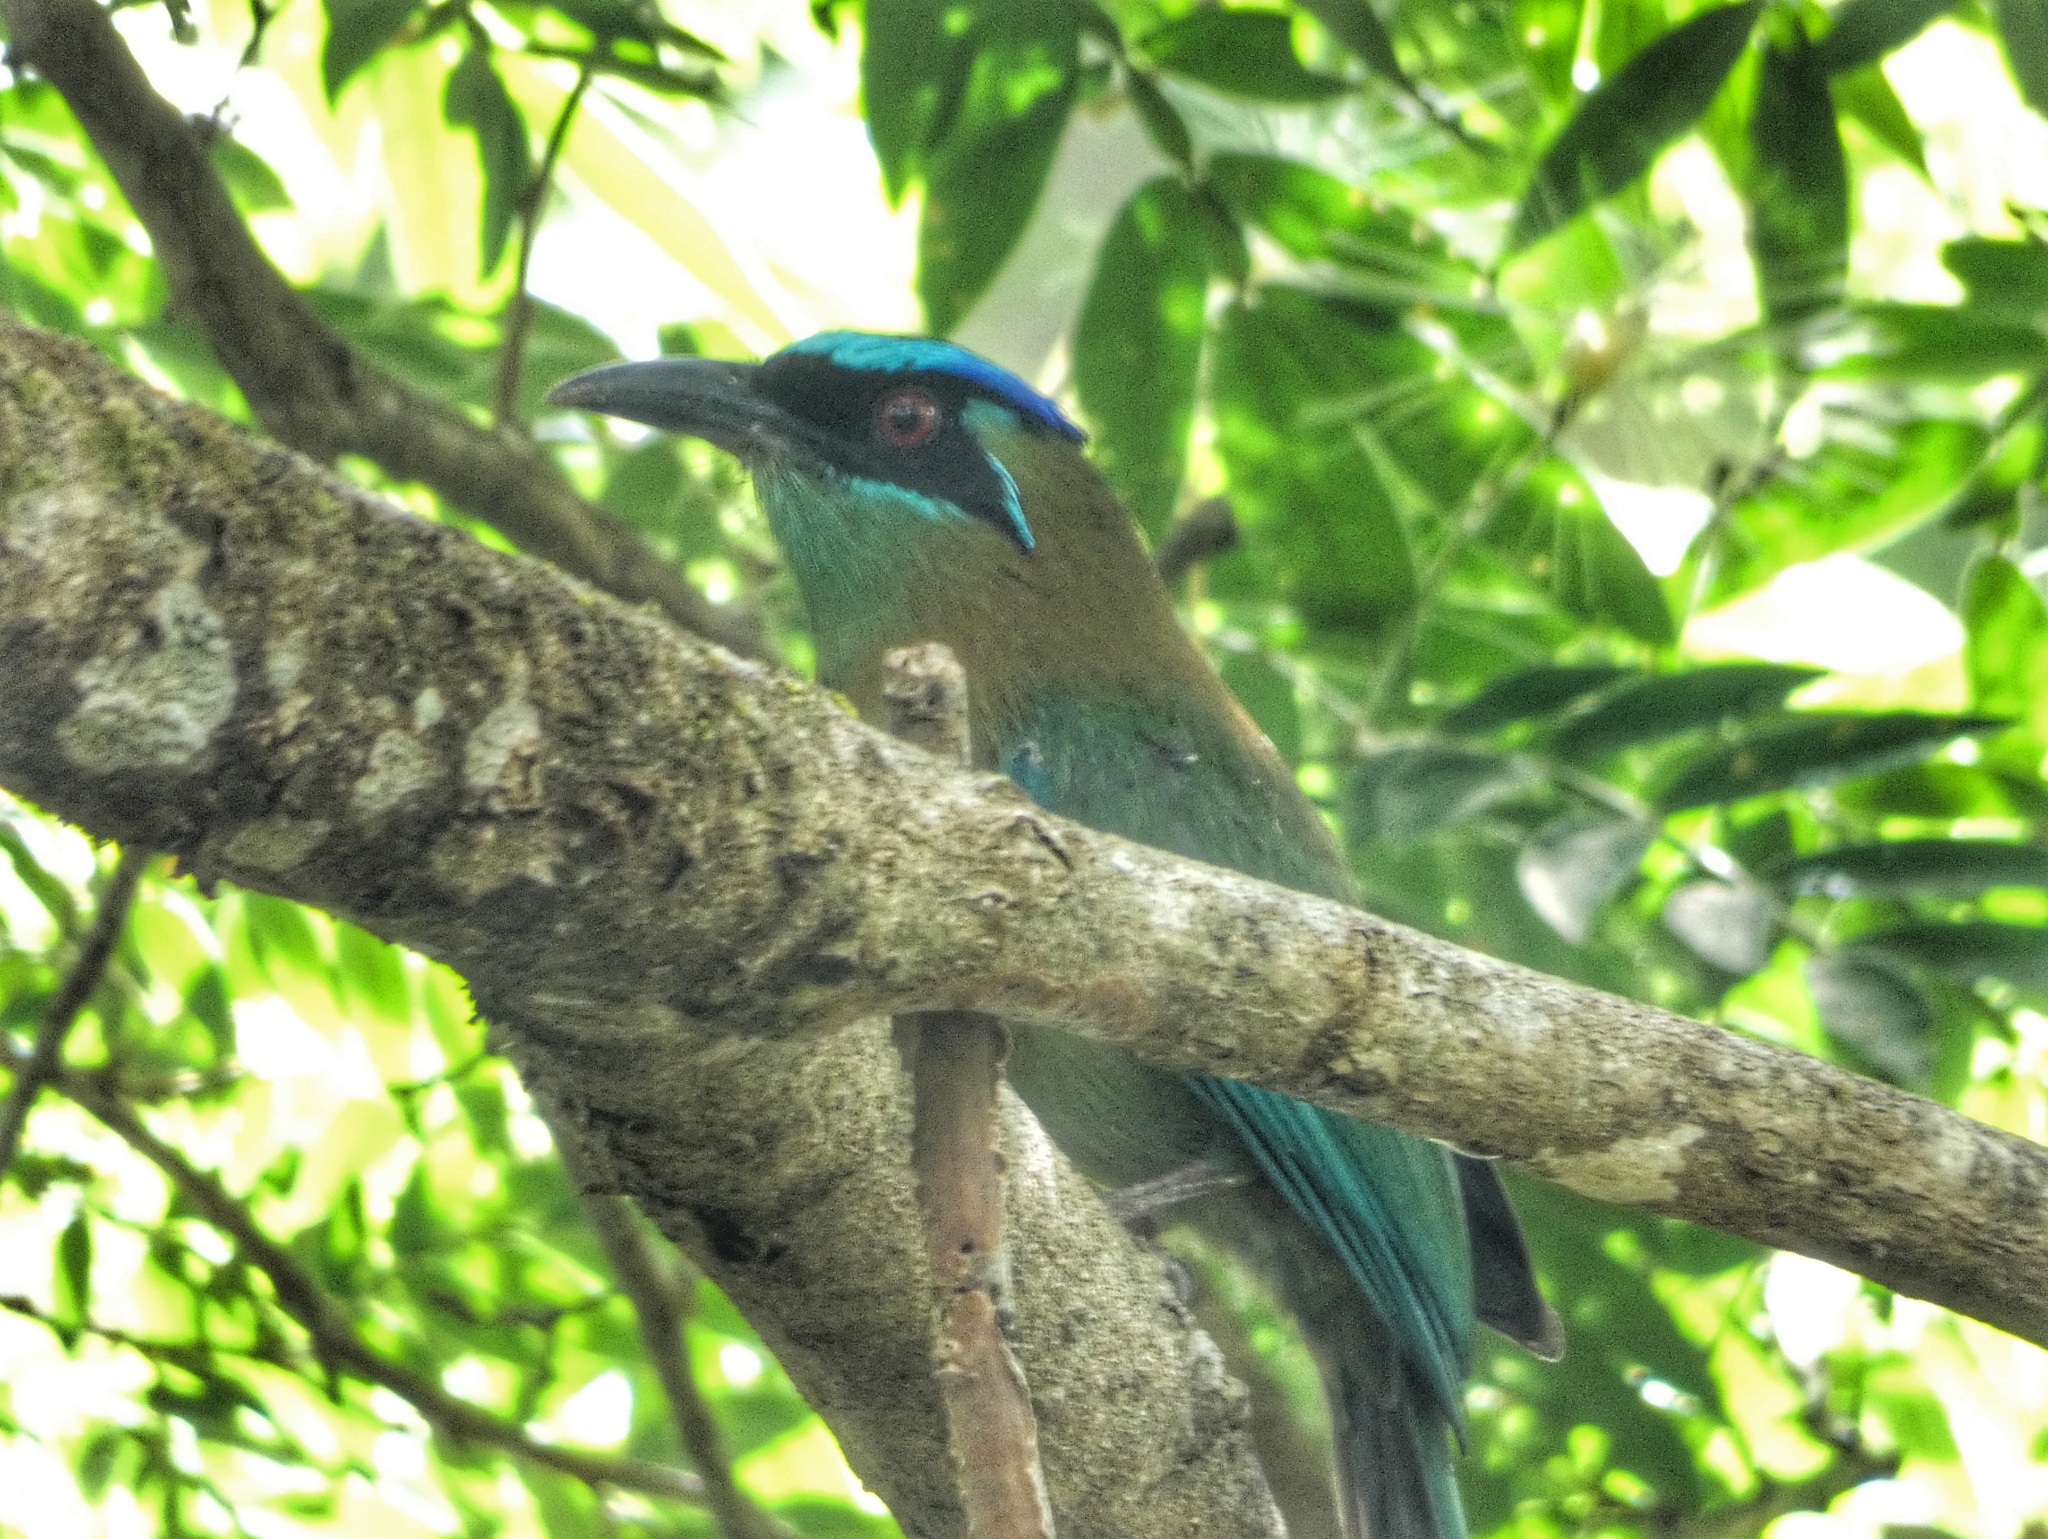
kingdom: Animalia
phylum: Chordata
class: Aves
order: Coraciiformes
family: Momotidae
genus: Momotus
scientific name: Momotus lessonii
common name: Lesson's motmot
